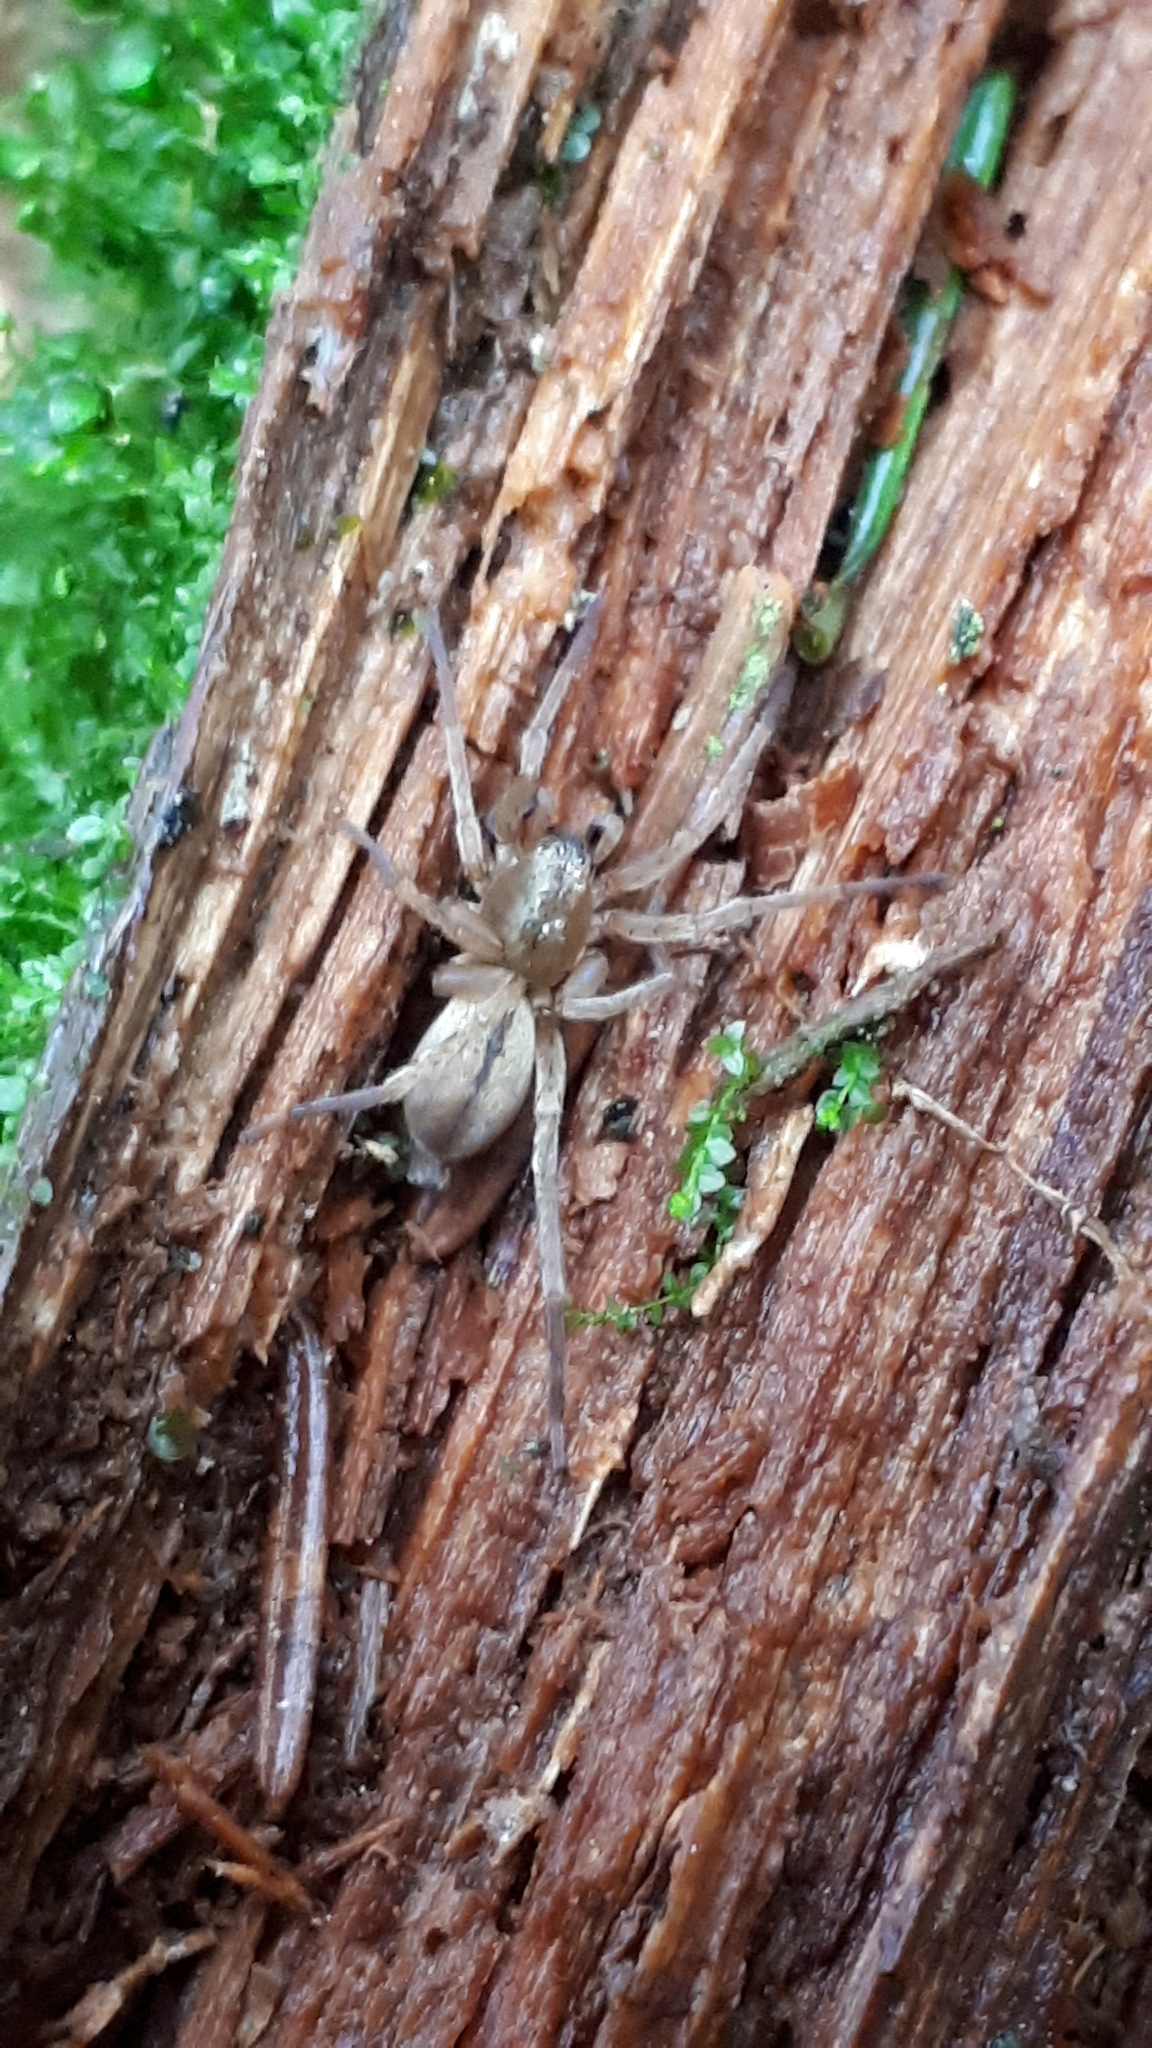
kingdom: Animalia
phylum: Arthropoda
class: Arachnida
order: Araneae
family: Clubionidae
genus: Clubiona
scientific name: Clubiona subsultans
